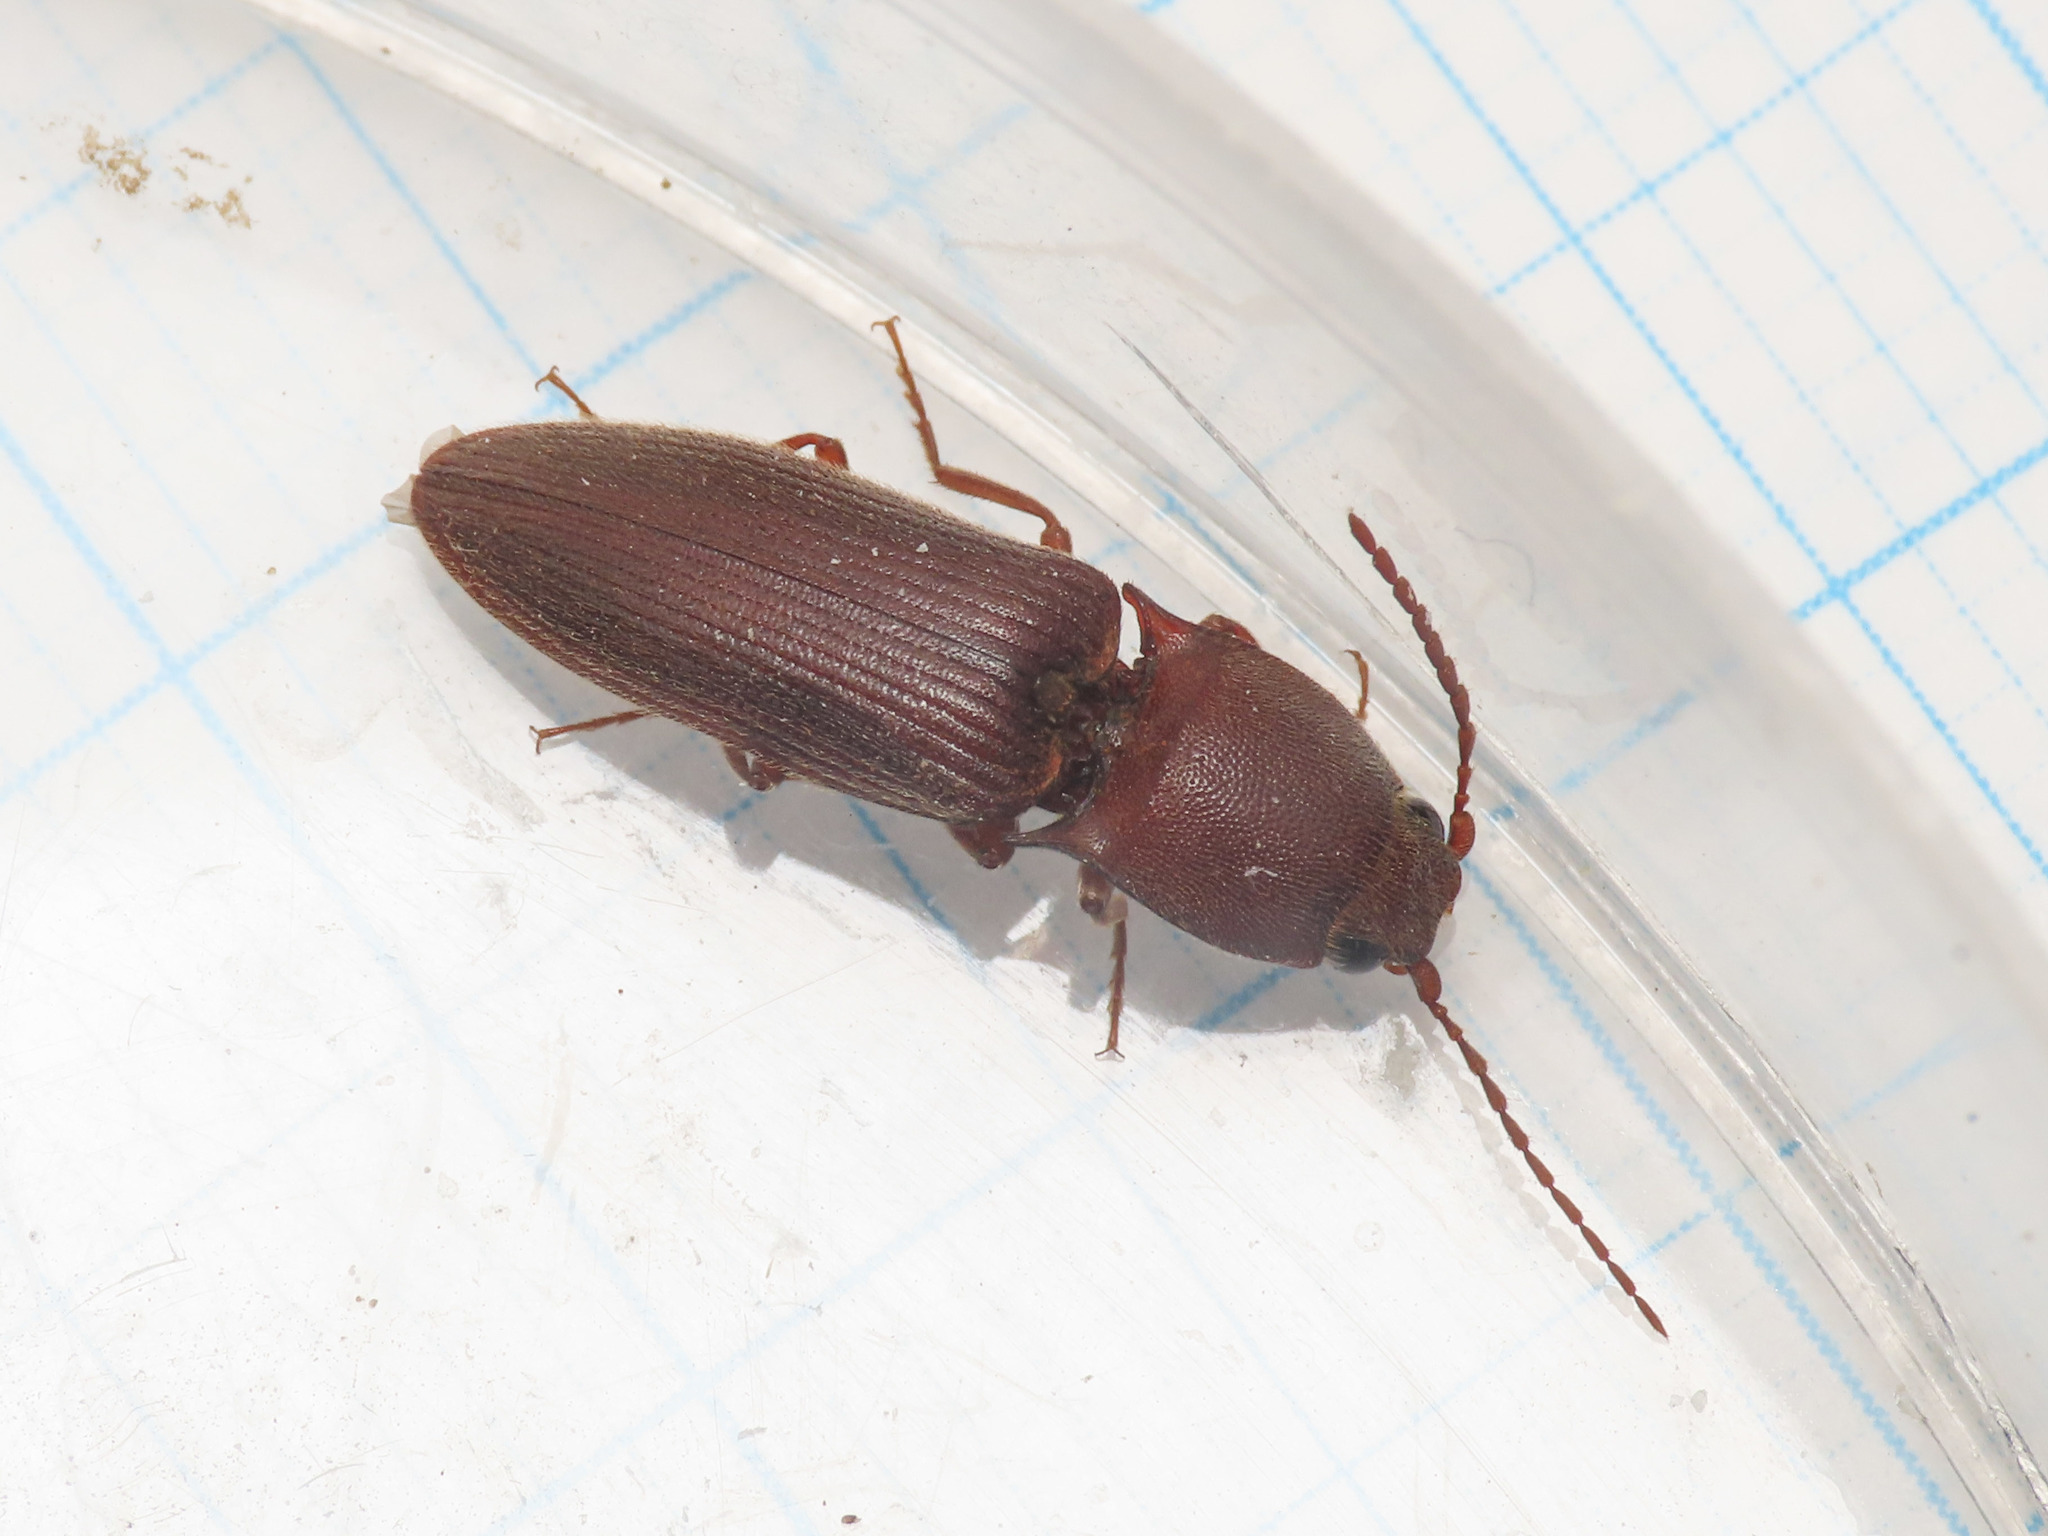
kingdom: Animalia
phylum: Arthropoda
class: Insecta
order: Coleoptera
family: Elateridae
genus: Harminius
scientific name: Harminius spiniger
